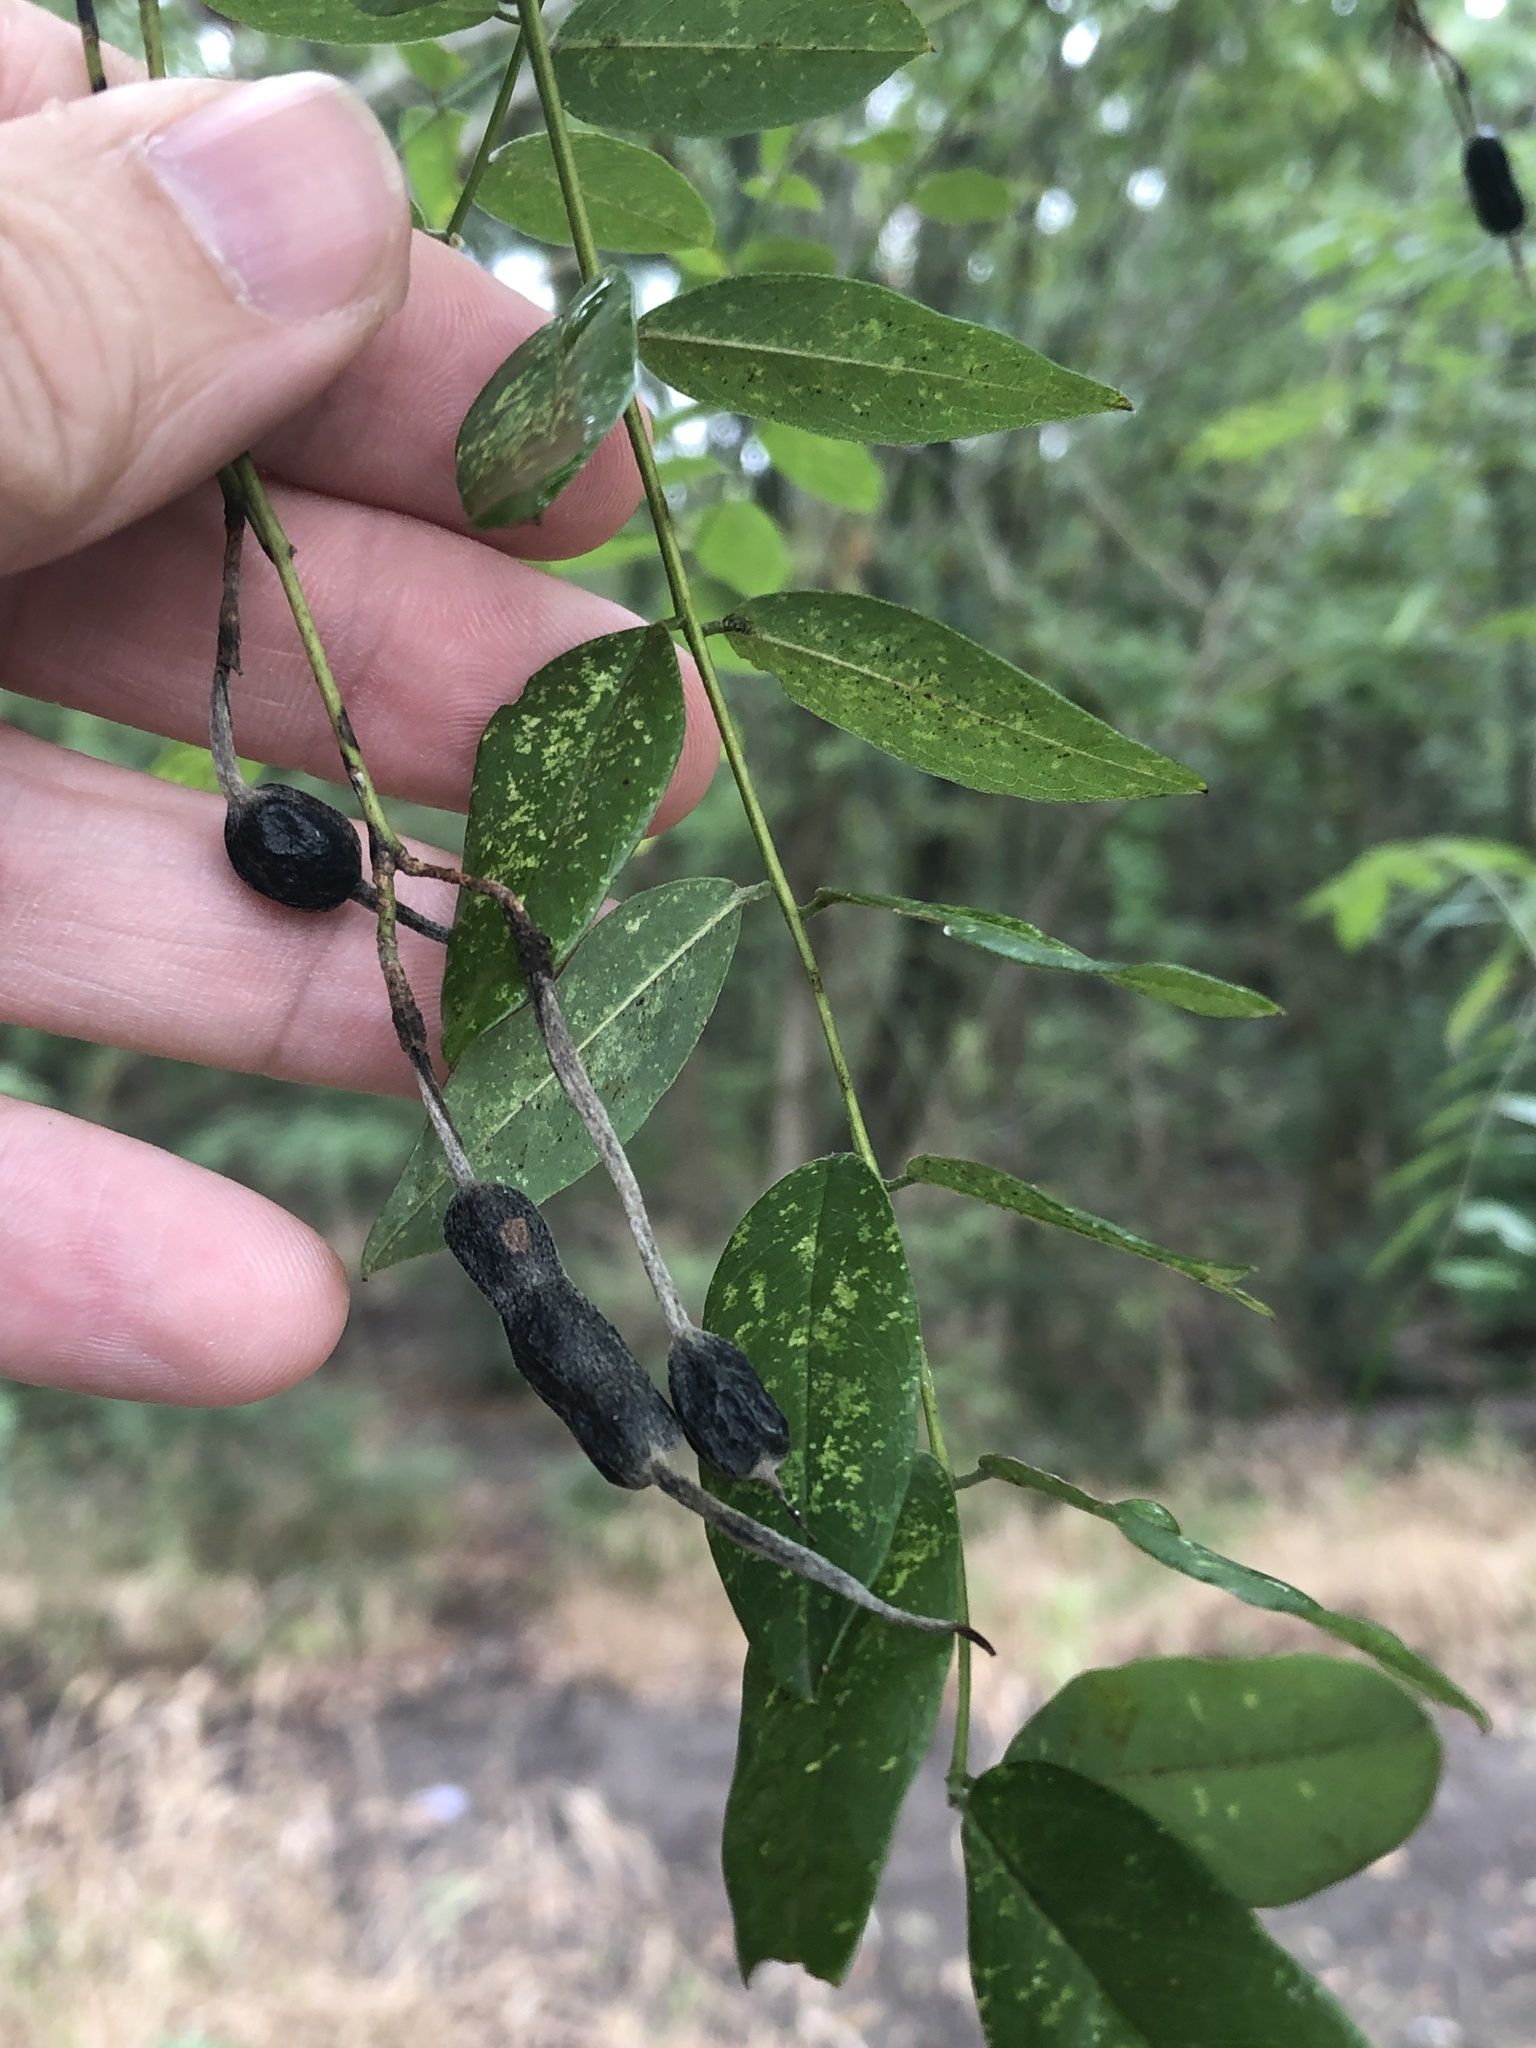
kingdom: Plantae
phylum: Tracheophyta
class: Magnoliopsida
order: Fabales
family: Fabaceae
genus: Styphnolobium
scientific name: Styphnolobium affine
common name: Texas sophora
